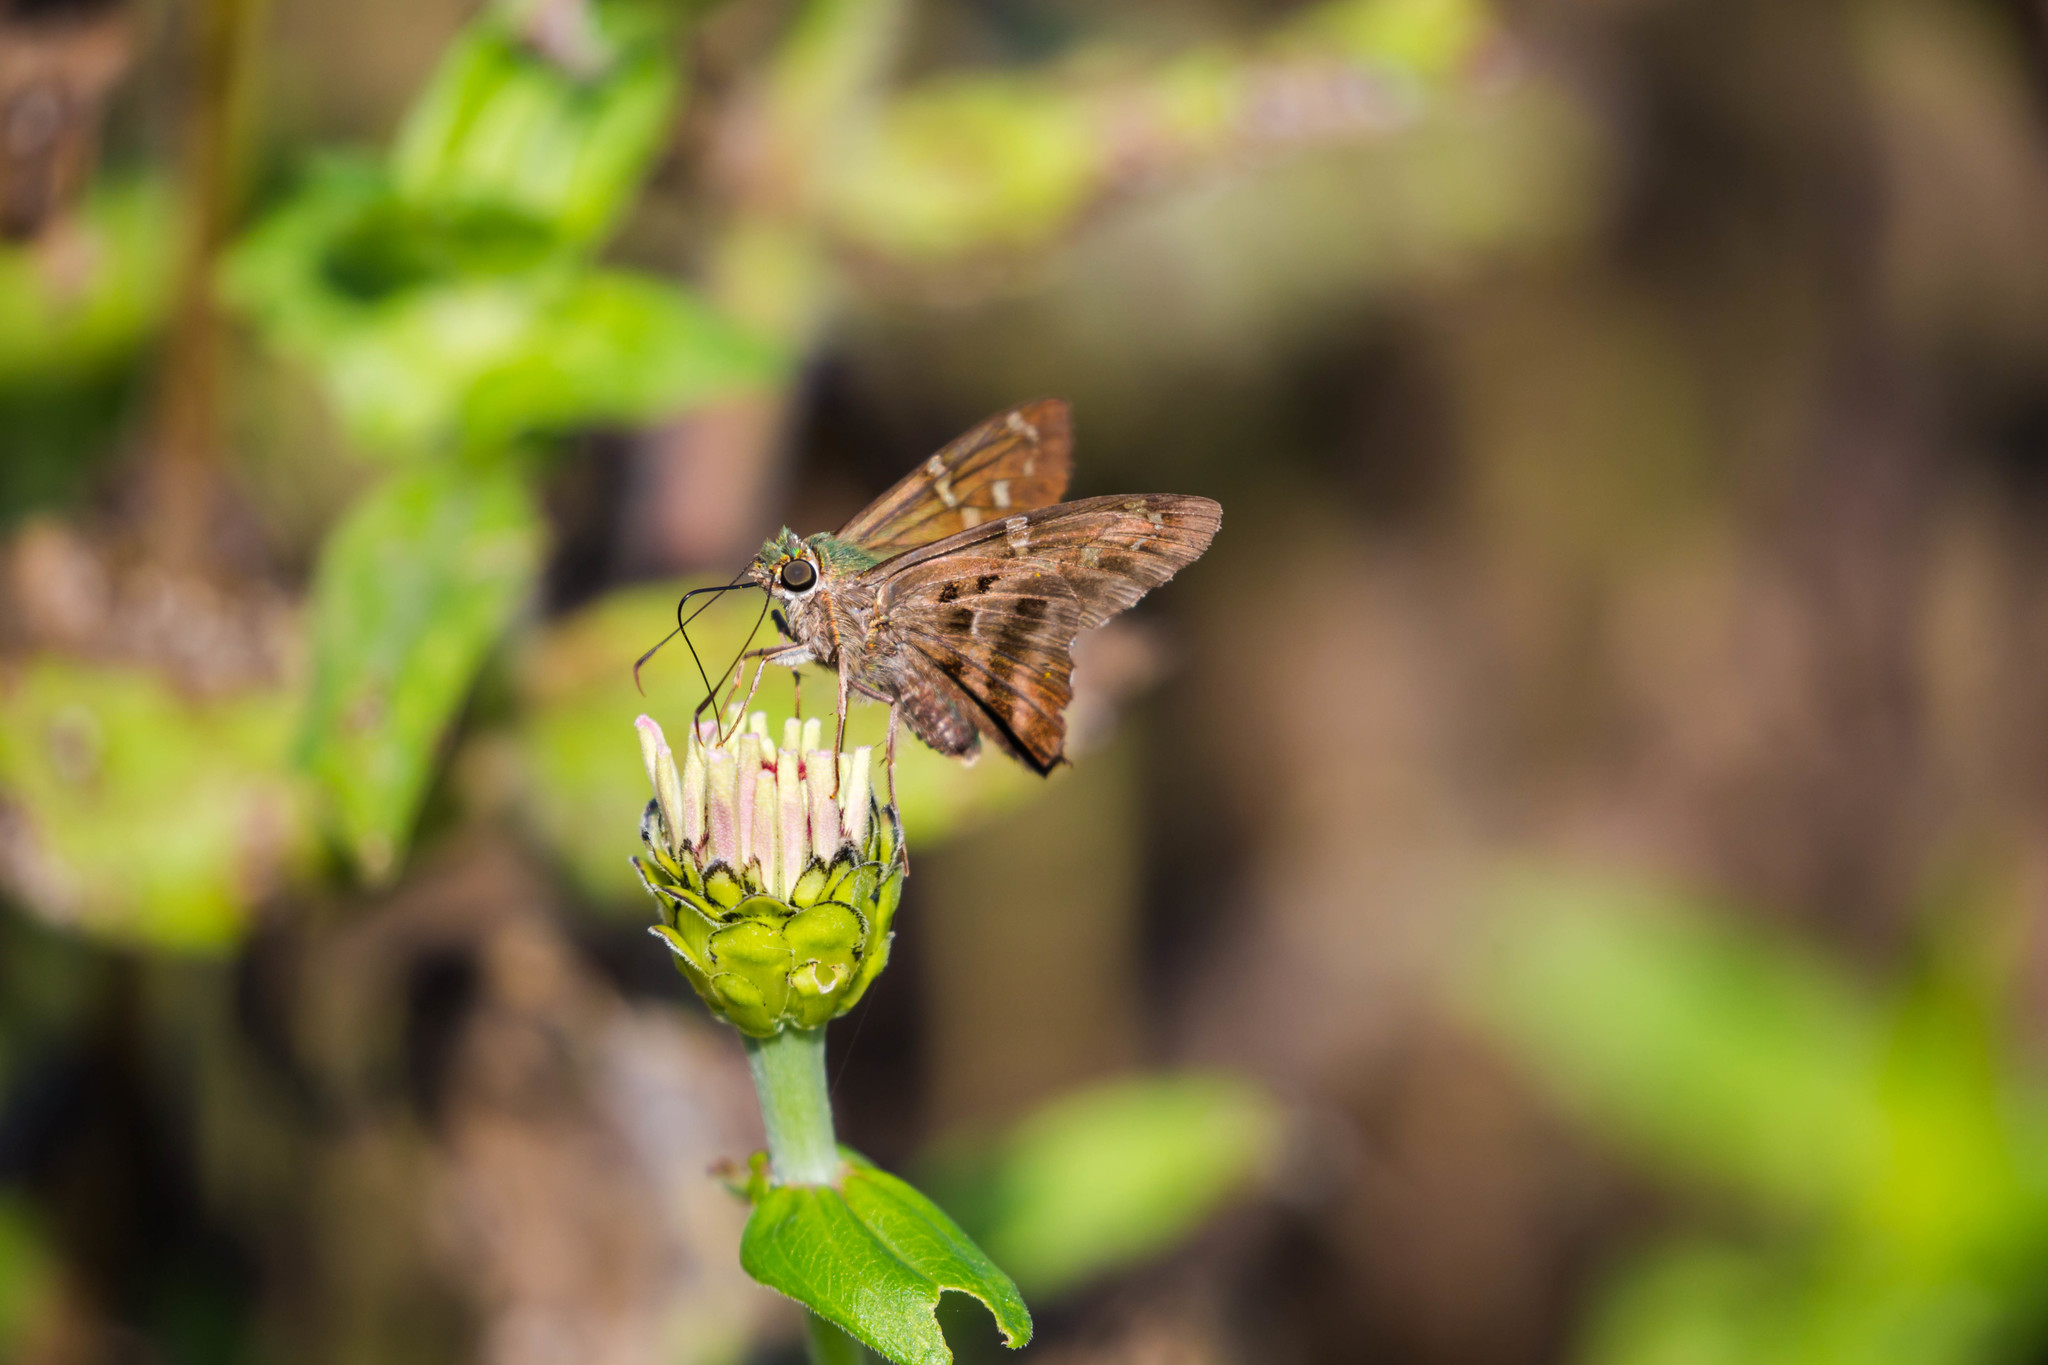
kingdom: Animalia
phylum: Arthropoda
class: Insecta
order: Lepidoptera
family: Hesperiidae
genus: Urbanus
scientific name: Urbanus proteus
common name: Long-tailed skipper
